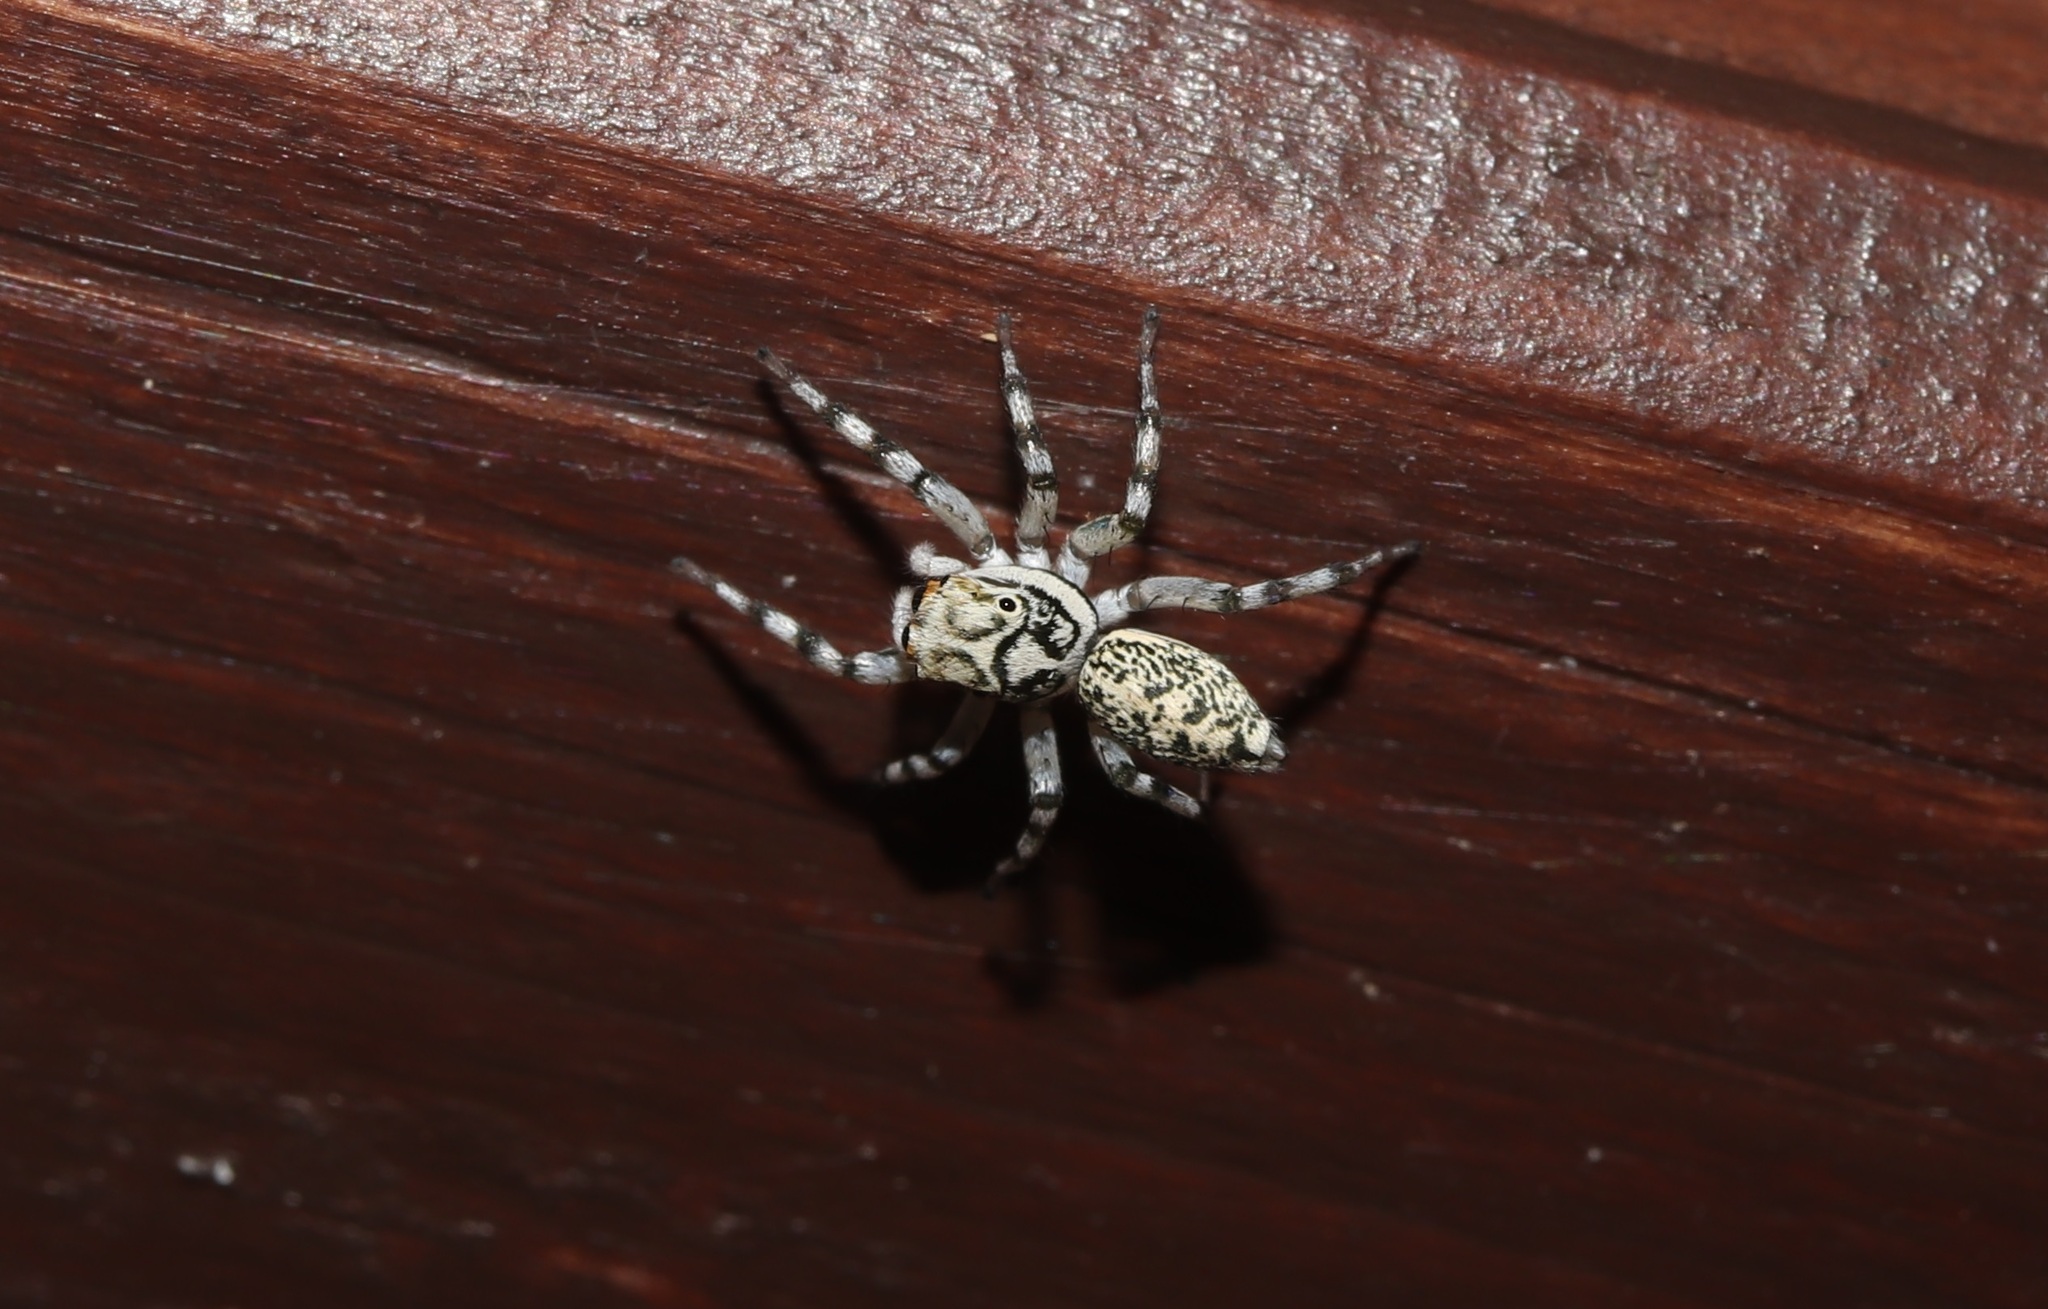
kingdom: Animalia
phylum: Arthropoda
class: Arachnida
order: Araneae
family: Salticidae
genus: Phintelloides
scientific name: Phintelloides versicolor
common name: Jumping spider
